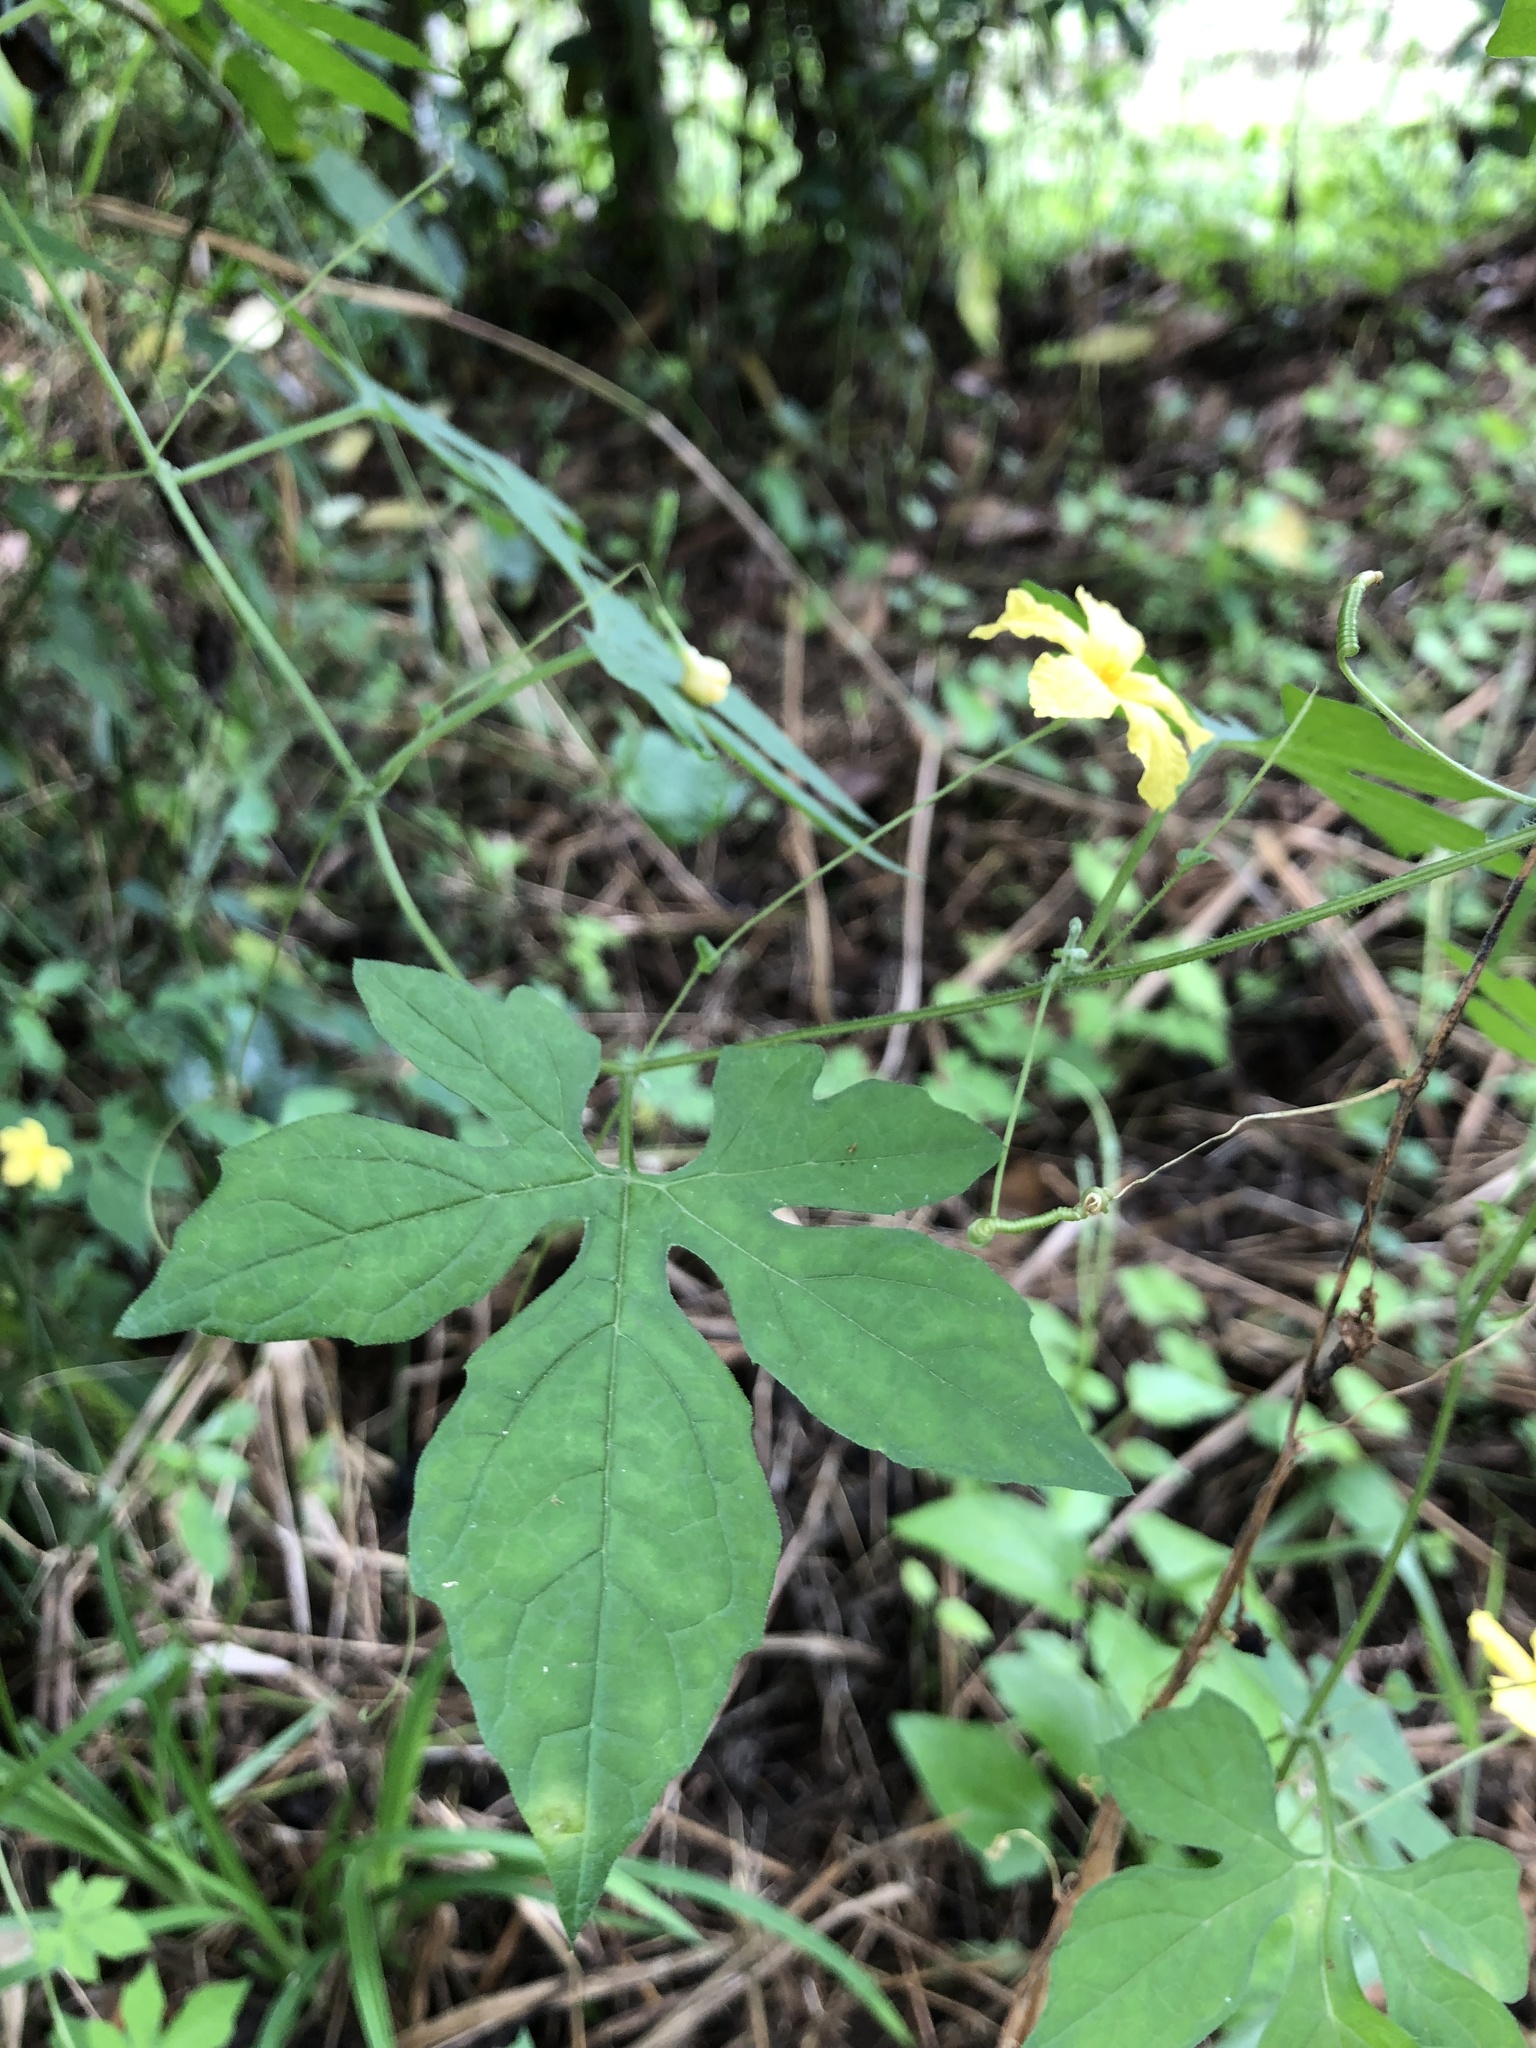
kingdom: Plantae
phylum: Tracheophyta
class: Magnoliopsida
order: Cucurbitales
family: Cucurbitaceae
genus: Momordica
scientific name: Momordica charantia
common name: Balsampear
